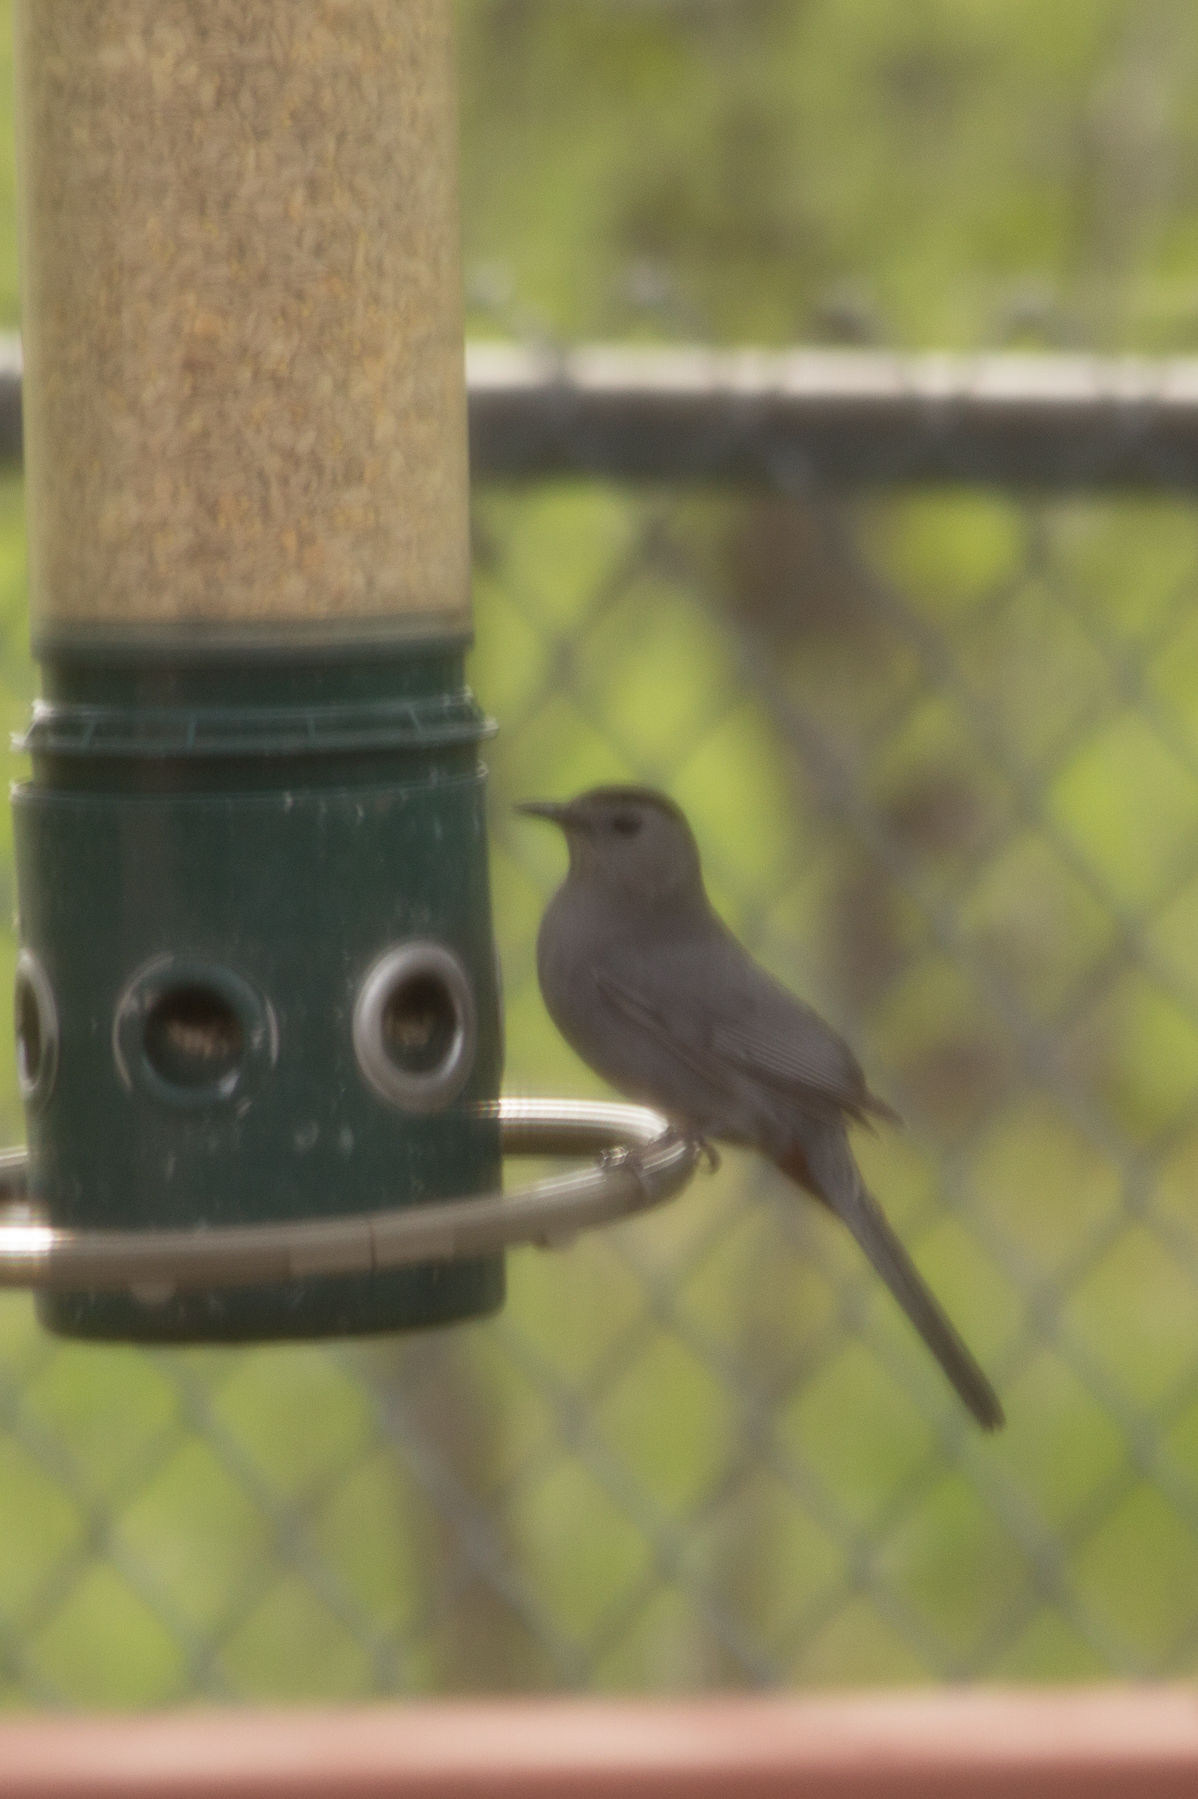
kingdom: Animalia
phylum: Chordata
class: Aves
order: Passeriformes
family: Mimidae
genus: Dumetella
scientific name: Dumetella carolinensis
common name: Gray catbird
